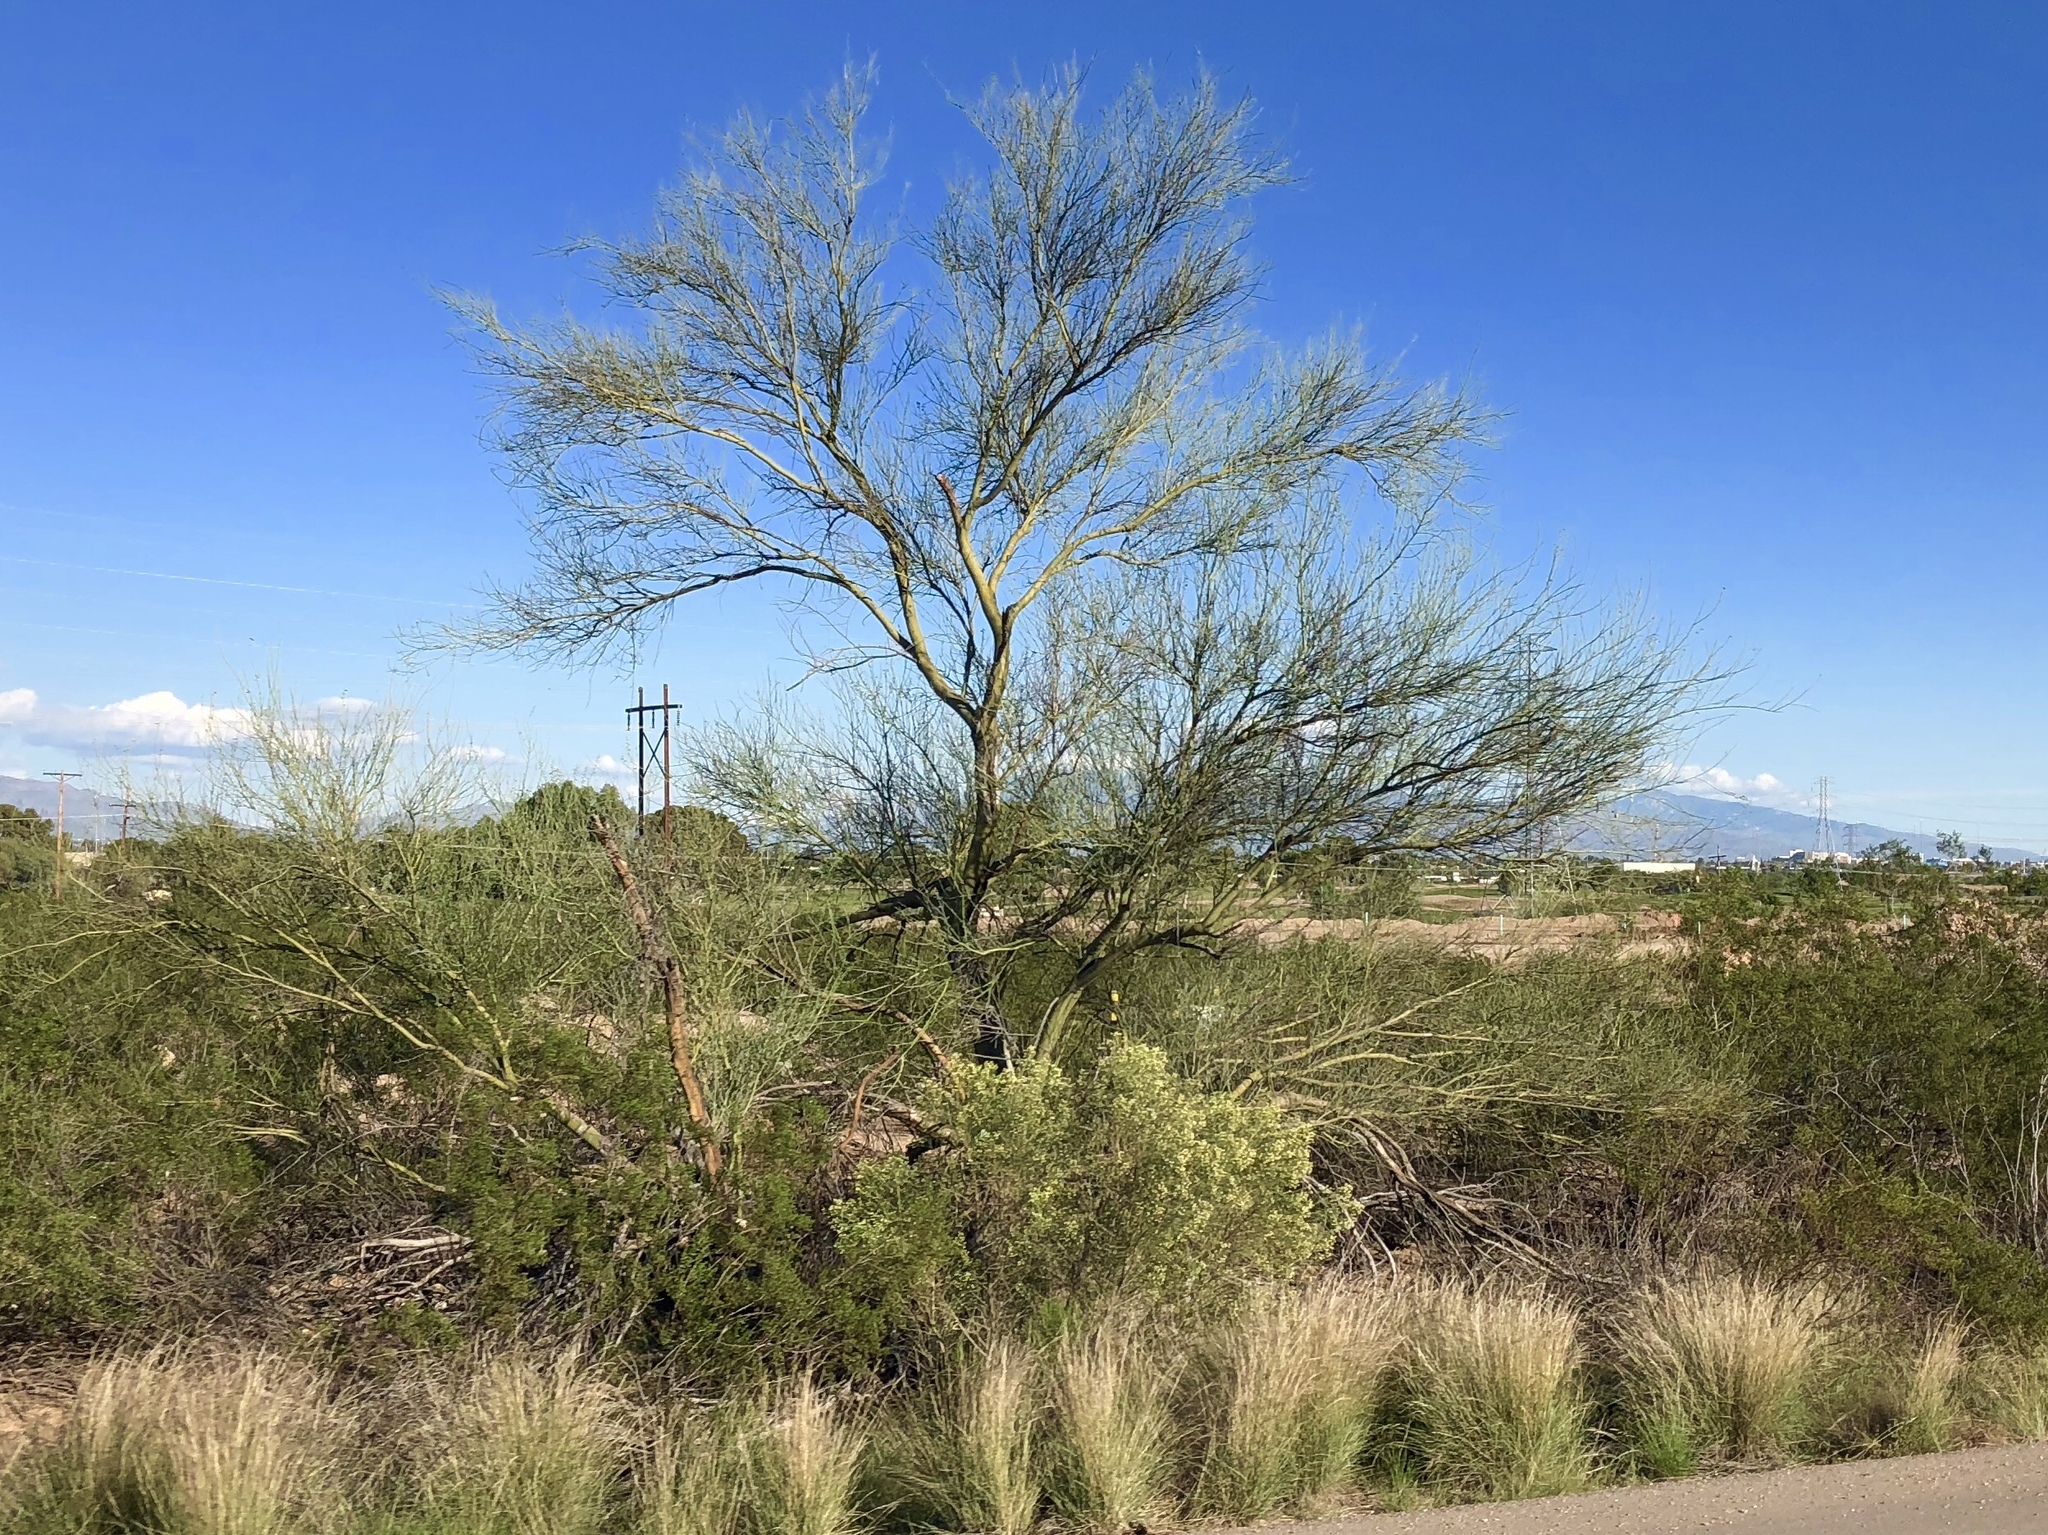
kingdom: Plantae
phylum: Tracheophyta
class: Magnoliopsida
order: Fabales
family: Fabaceae
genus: Parkinsonia
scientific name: Parkinsonia microphylla
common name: Yellow paloverde
